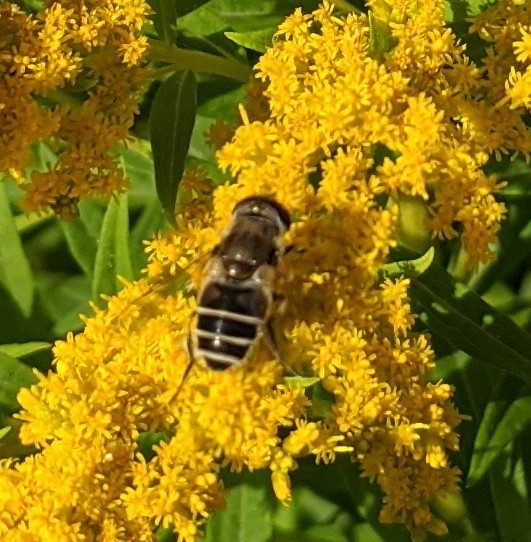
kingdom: Animalia
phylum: Arthropoda
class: Insecta
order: Diptera
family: Syrphidae
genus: Eristalis
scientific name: Eristalis arbustorum
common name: Hover fly
